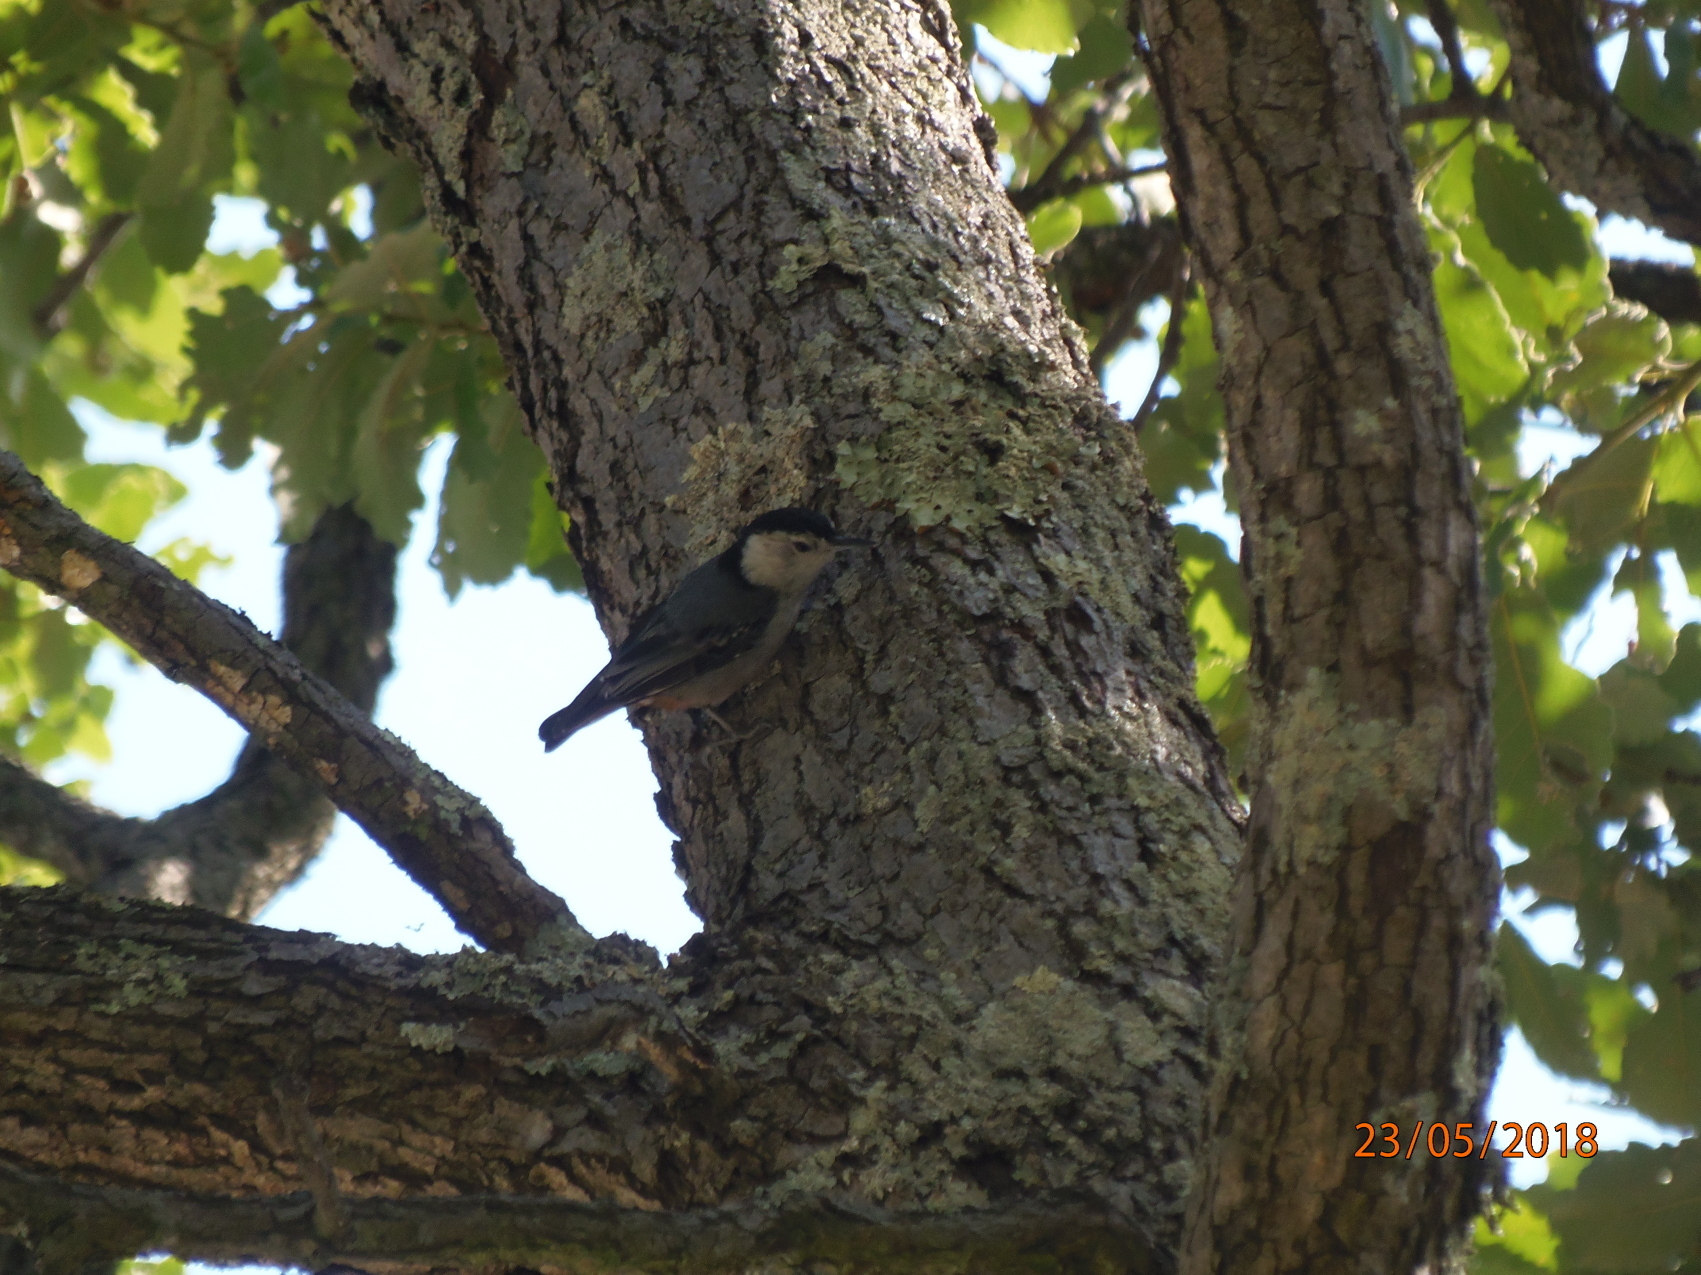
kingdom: Animalia
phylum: Chordata
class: Aves
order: Passeriformes
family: Sittidae
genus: Sitta
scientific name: Sitta carolinensis
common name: White-breasted nuthatch
